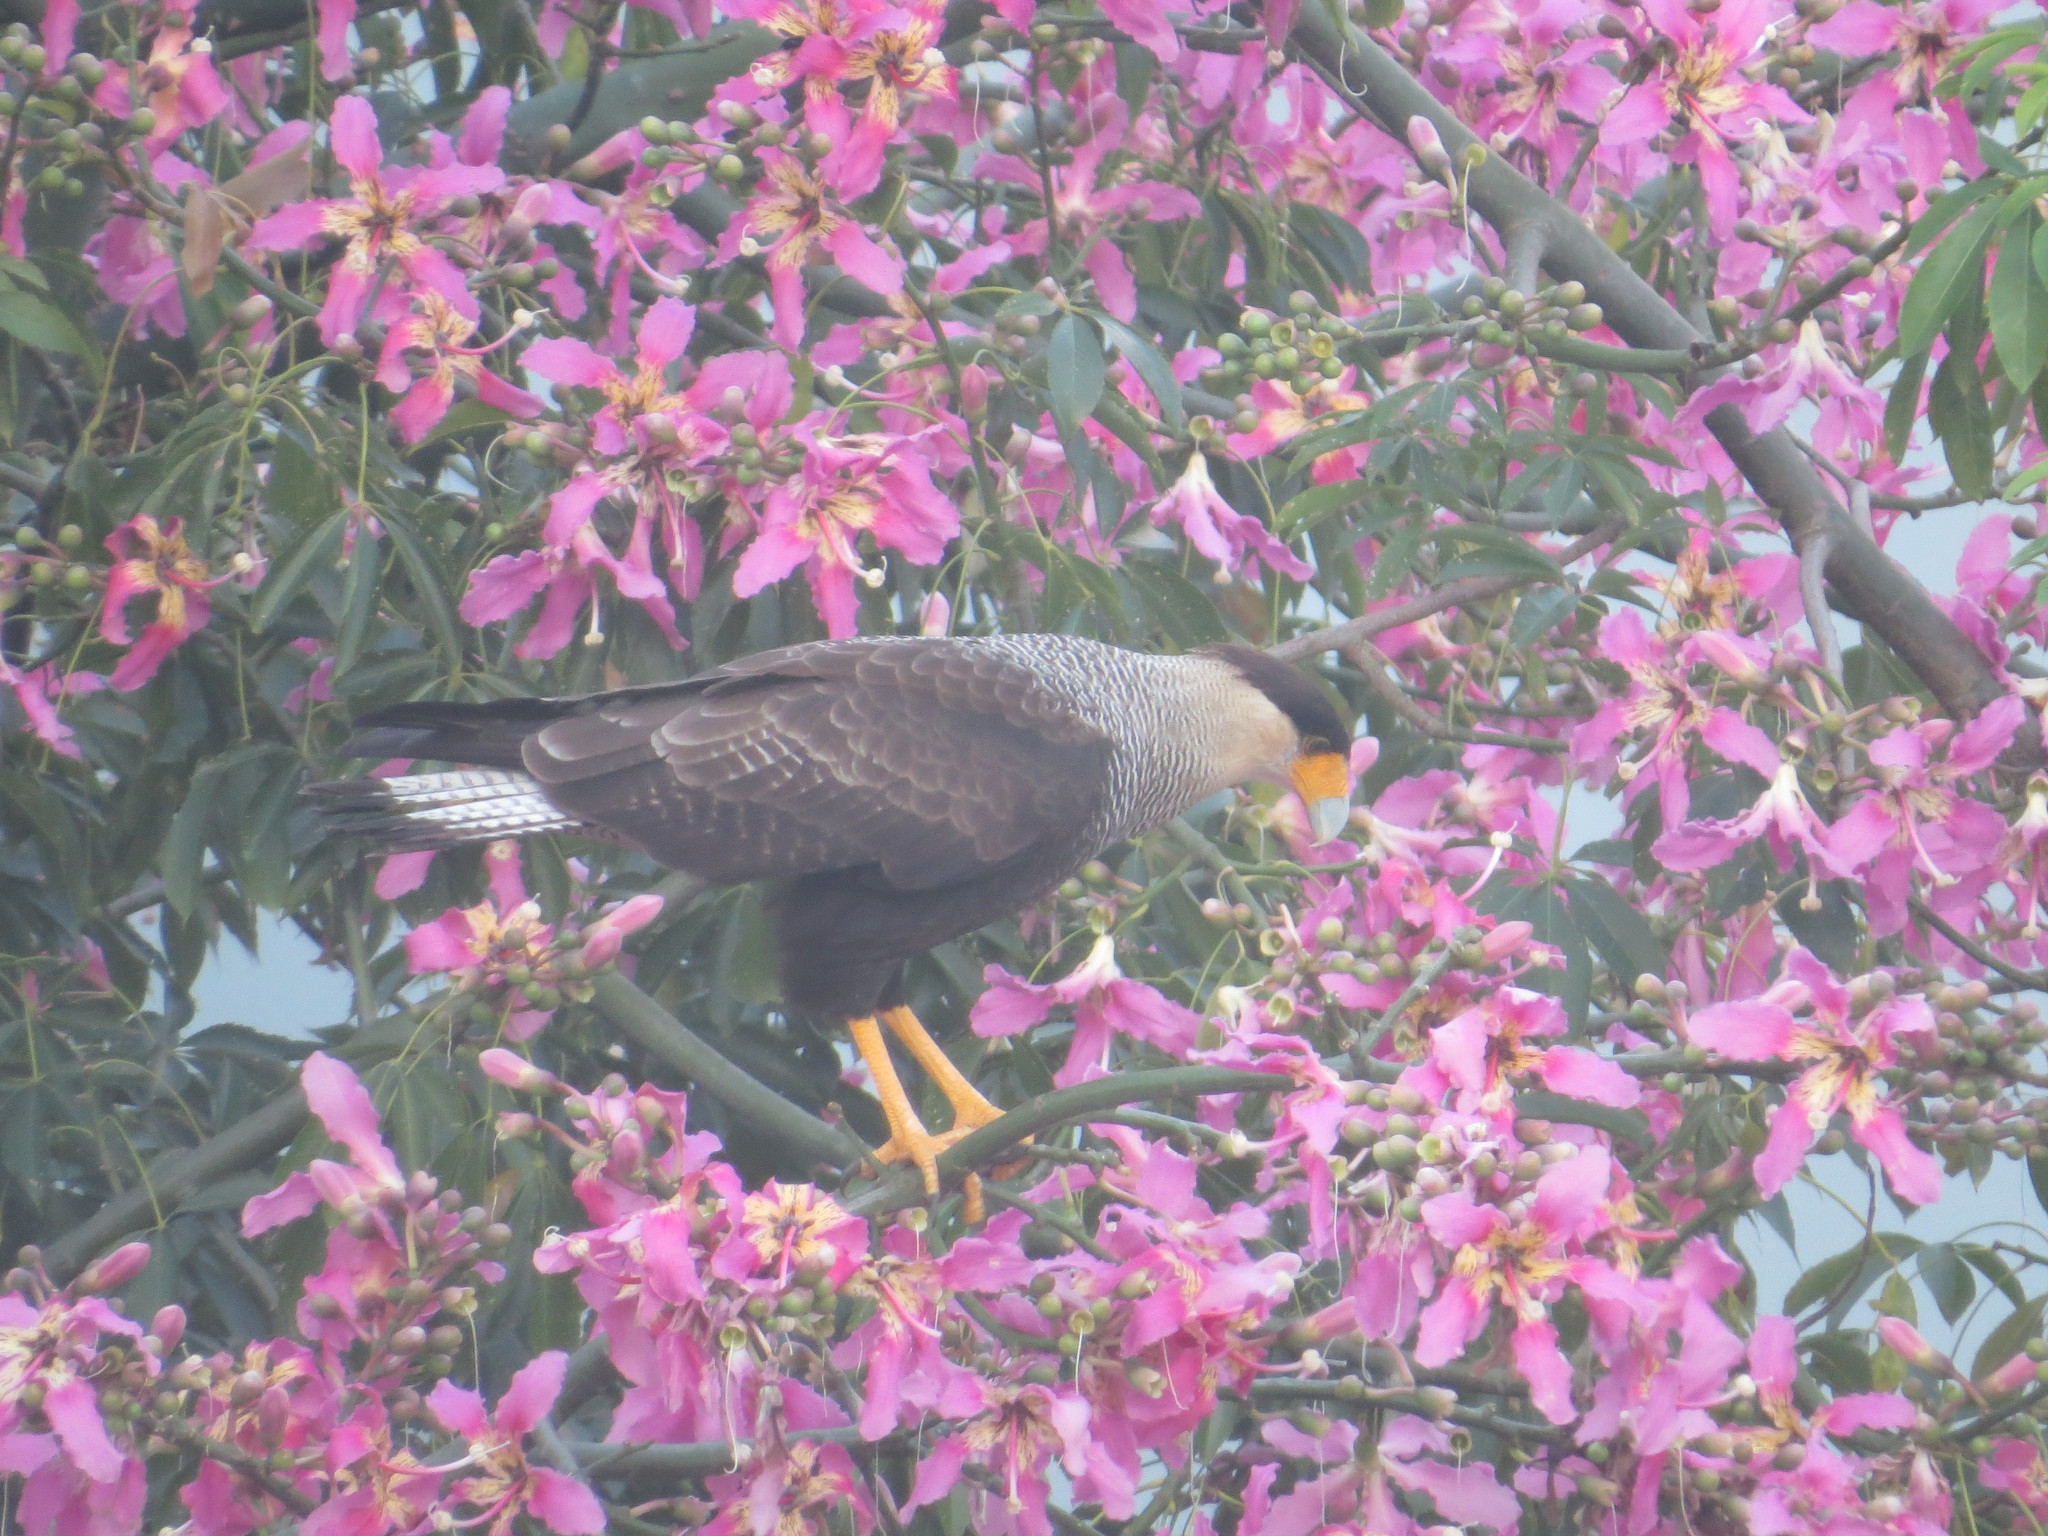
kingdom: Animalia
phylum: Chordata
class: Aves
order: Falconiformes
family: Falconidae
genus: Caracara
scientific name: Caracara plancus
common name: Southern caracara
